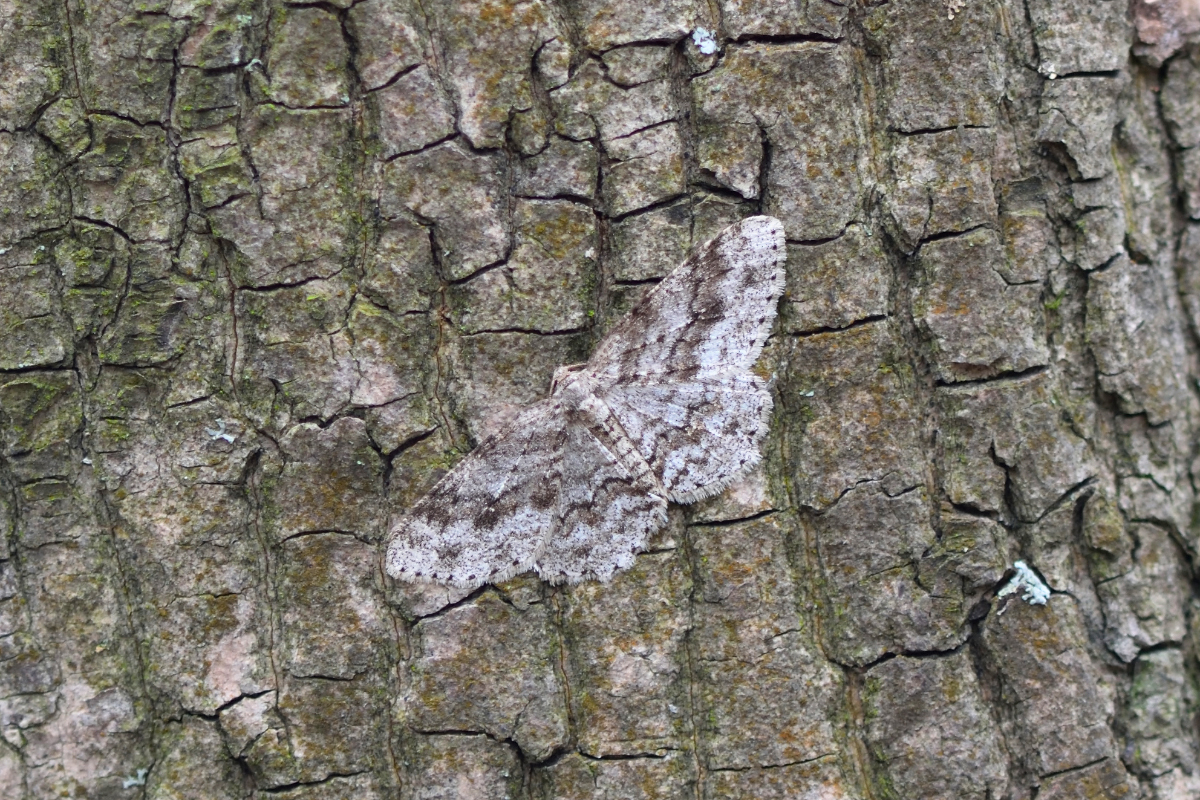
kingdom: Animalia
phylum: Arthropoda
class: Insecta
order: Lepidoptera
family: Geometridae
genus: Ectropis
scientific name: Ectropis crepuscularia
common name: Engrailed
